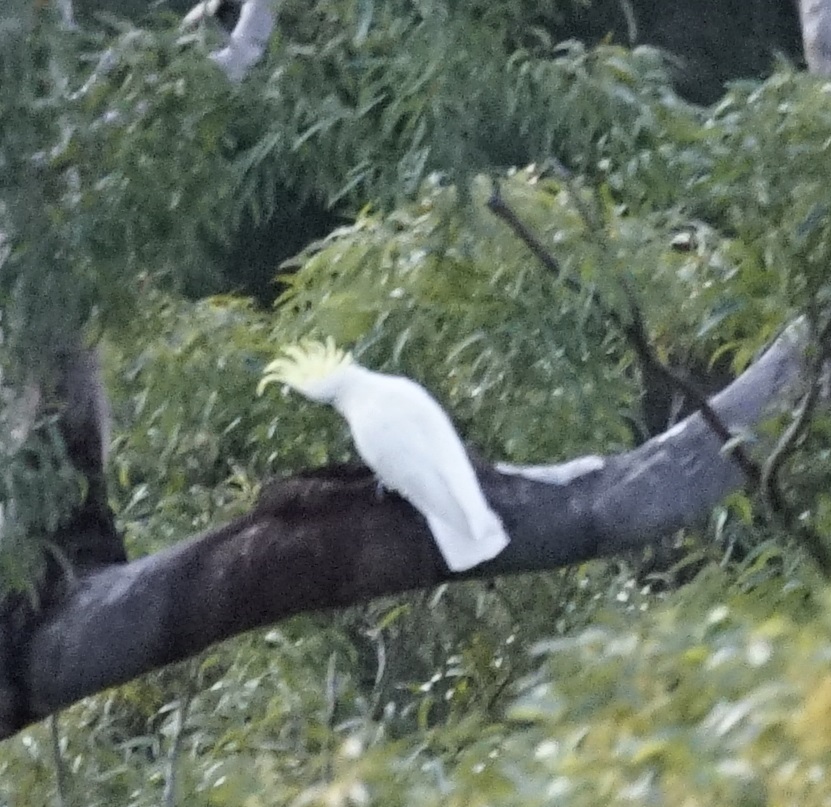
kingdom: Animalia
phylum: Chordata
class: Aves
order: Psittaciformes
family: Psittacidae
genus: Cacatua
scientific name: Cacatua galerita
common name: Sulphur-crested cockatoo
